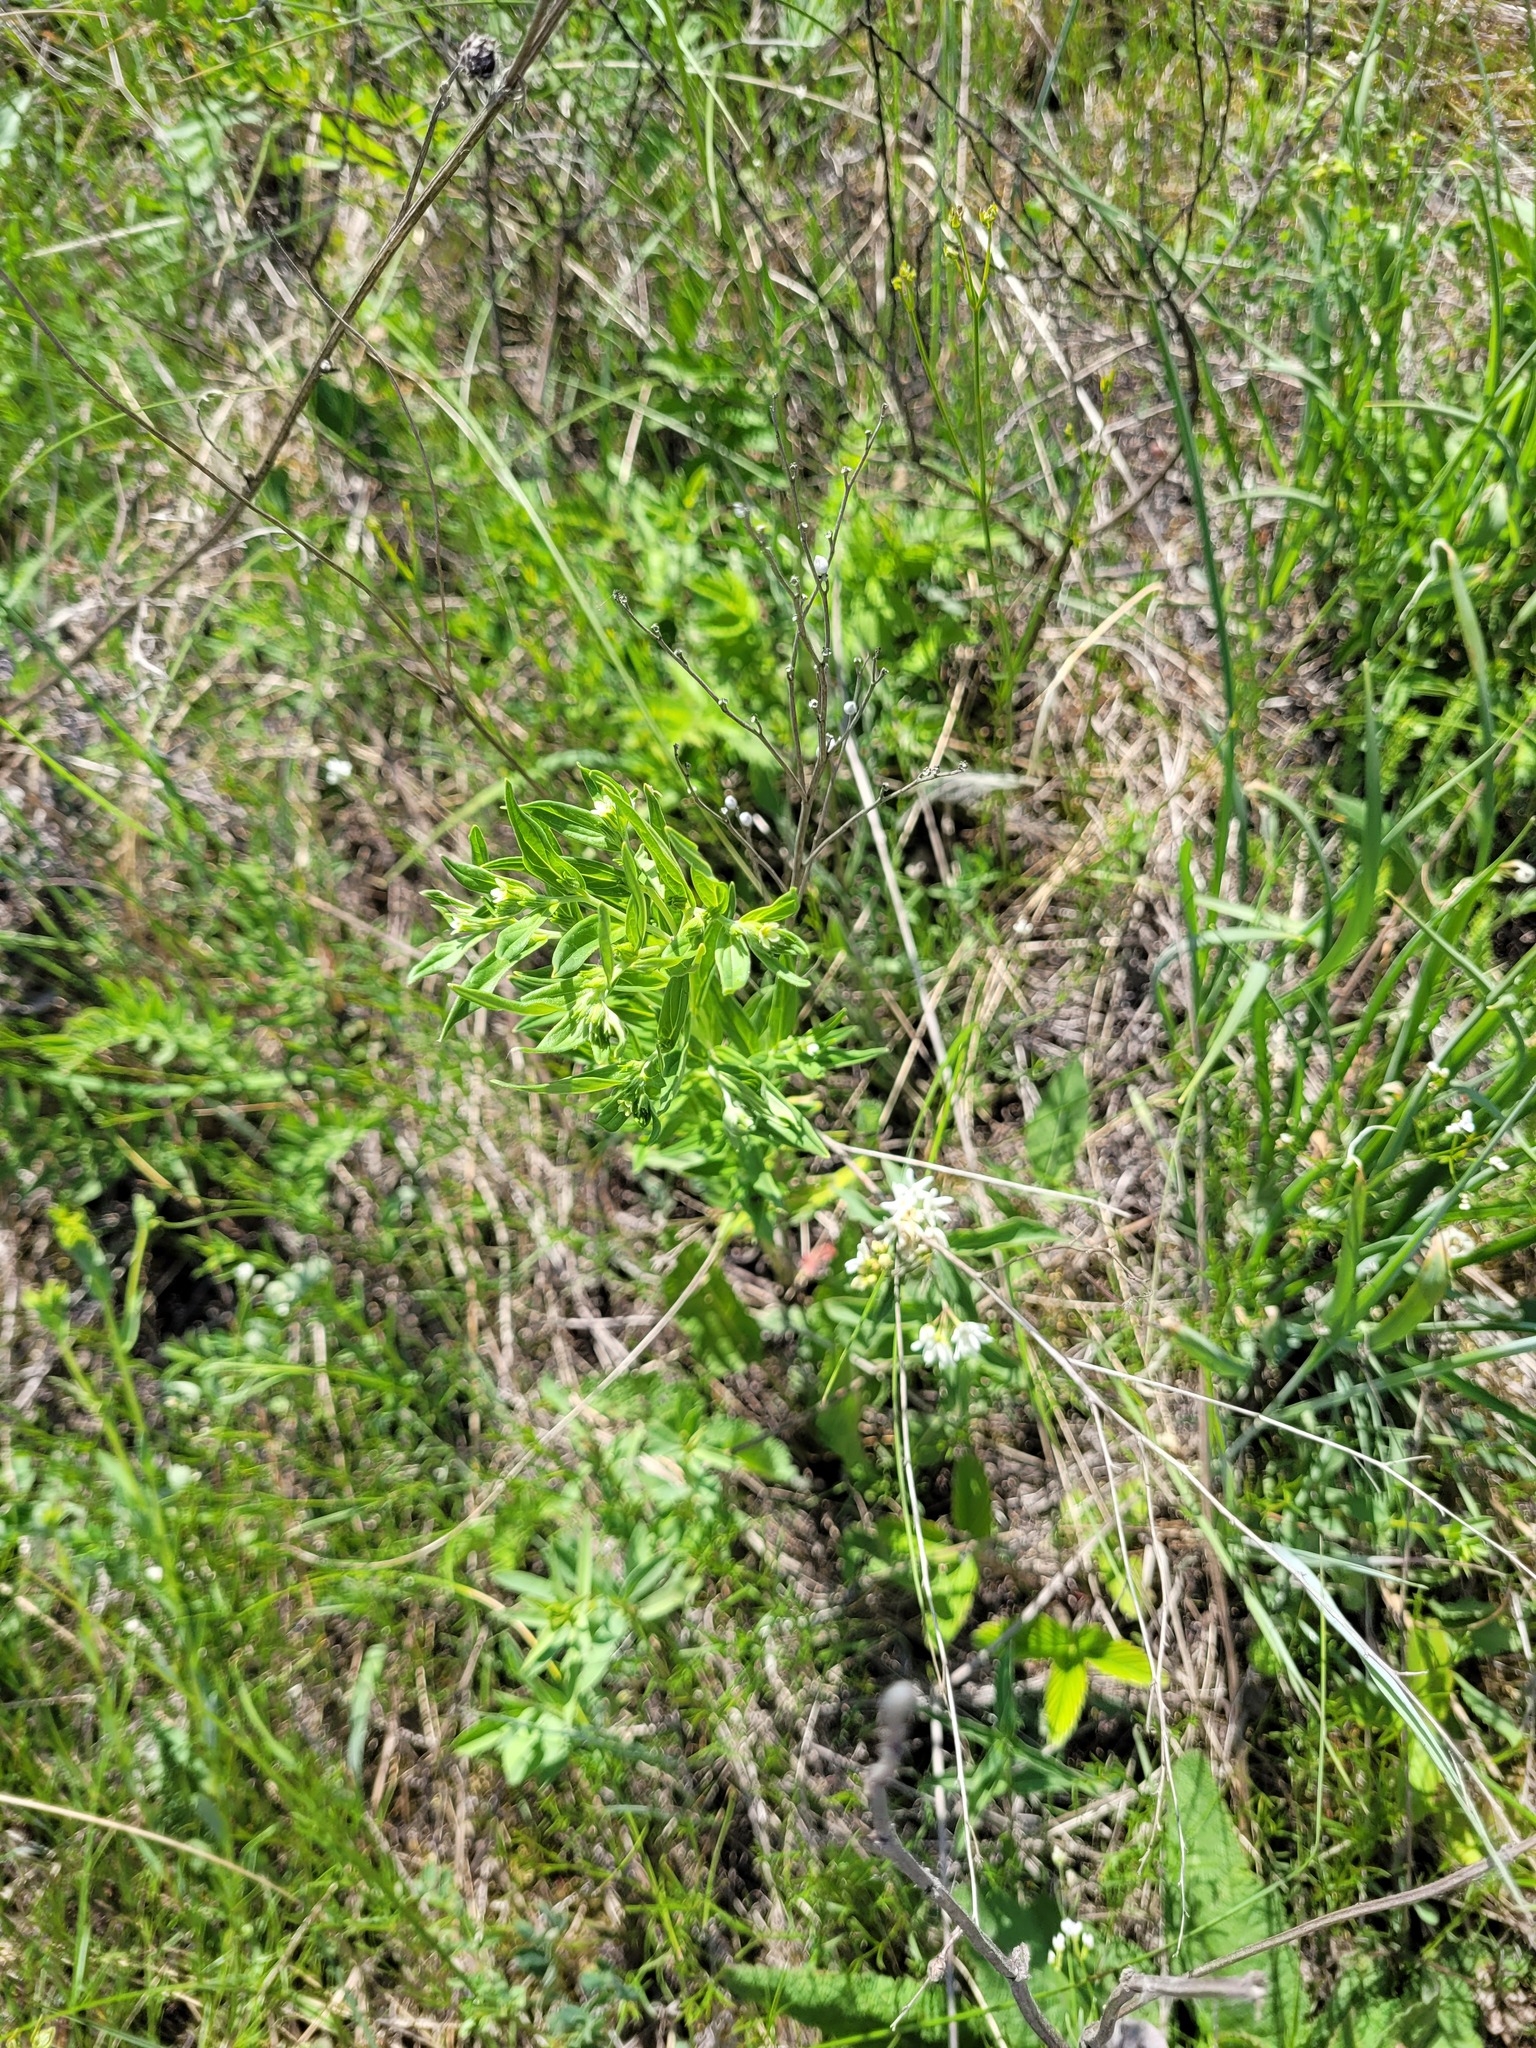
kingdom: Plantae
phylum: Tracheophyta
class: Magnoliopsida
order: Boraginales
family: Boraginaceae
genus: Lithospermum
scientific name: Lithospermum officinale
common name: Common gromwell
